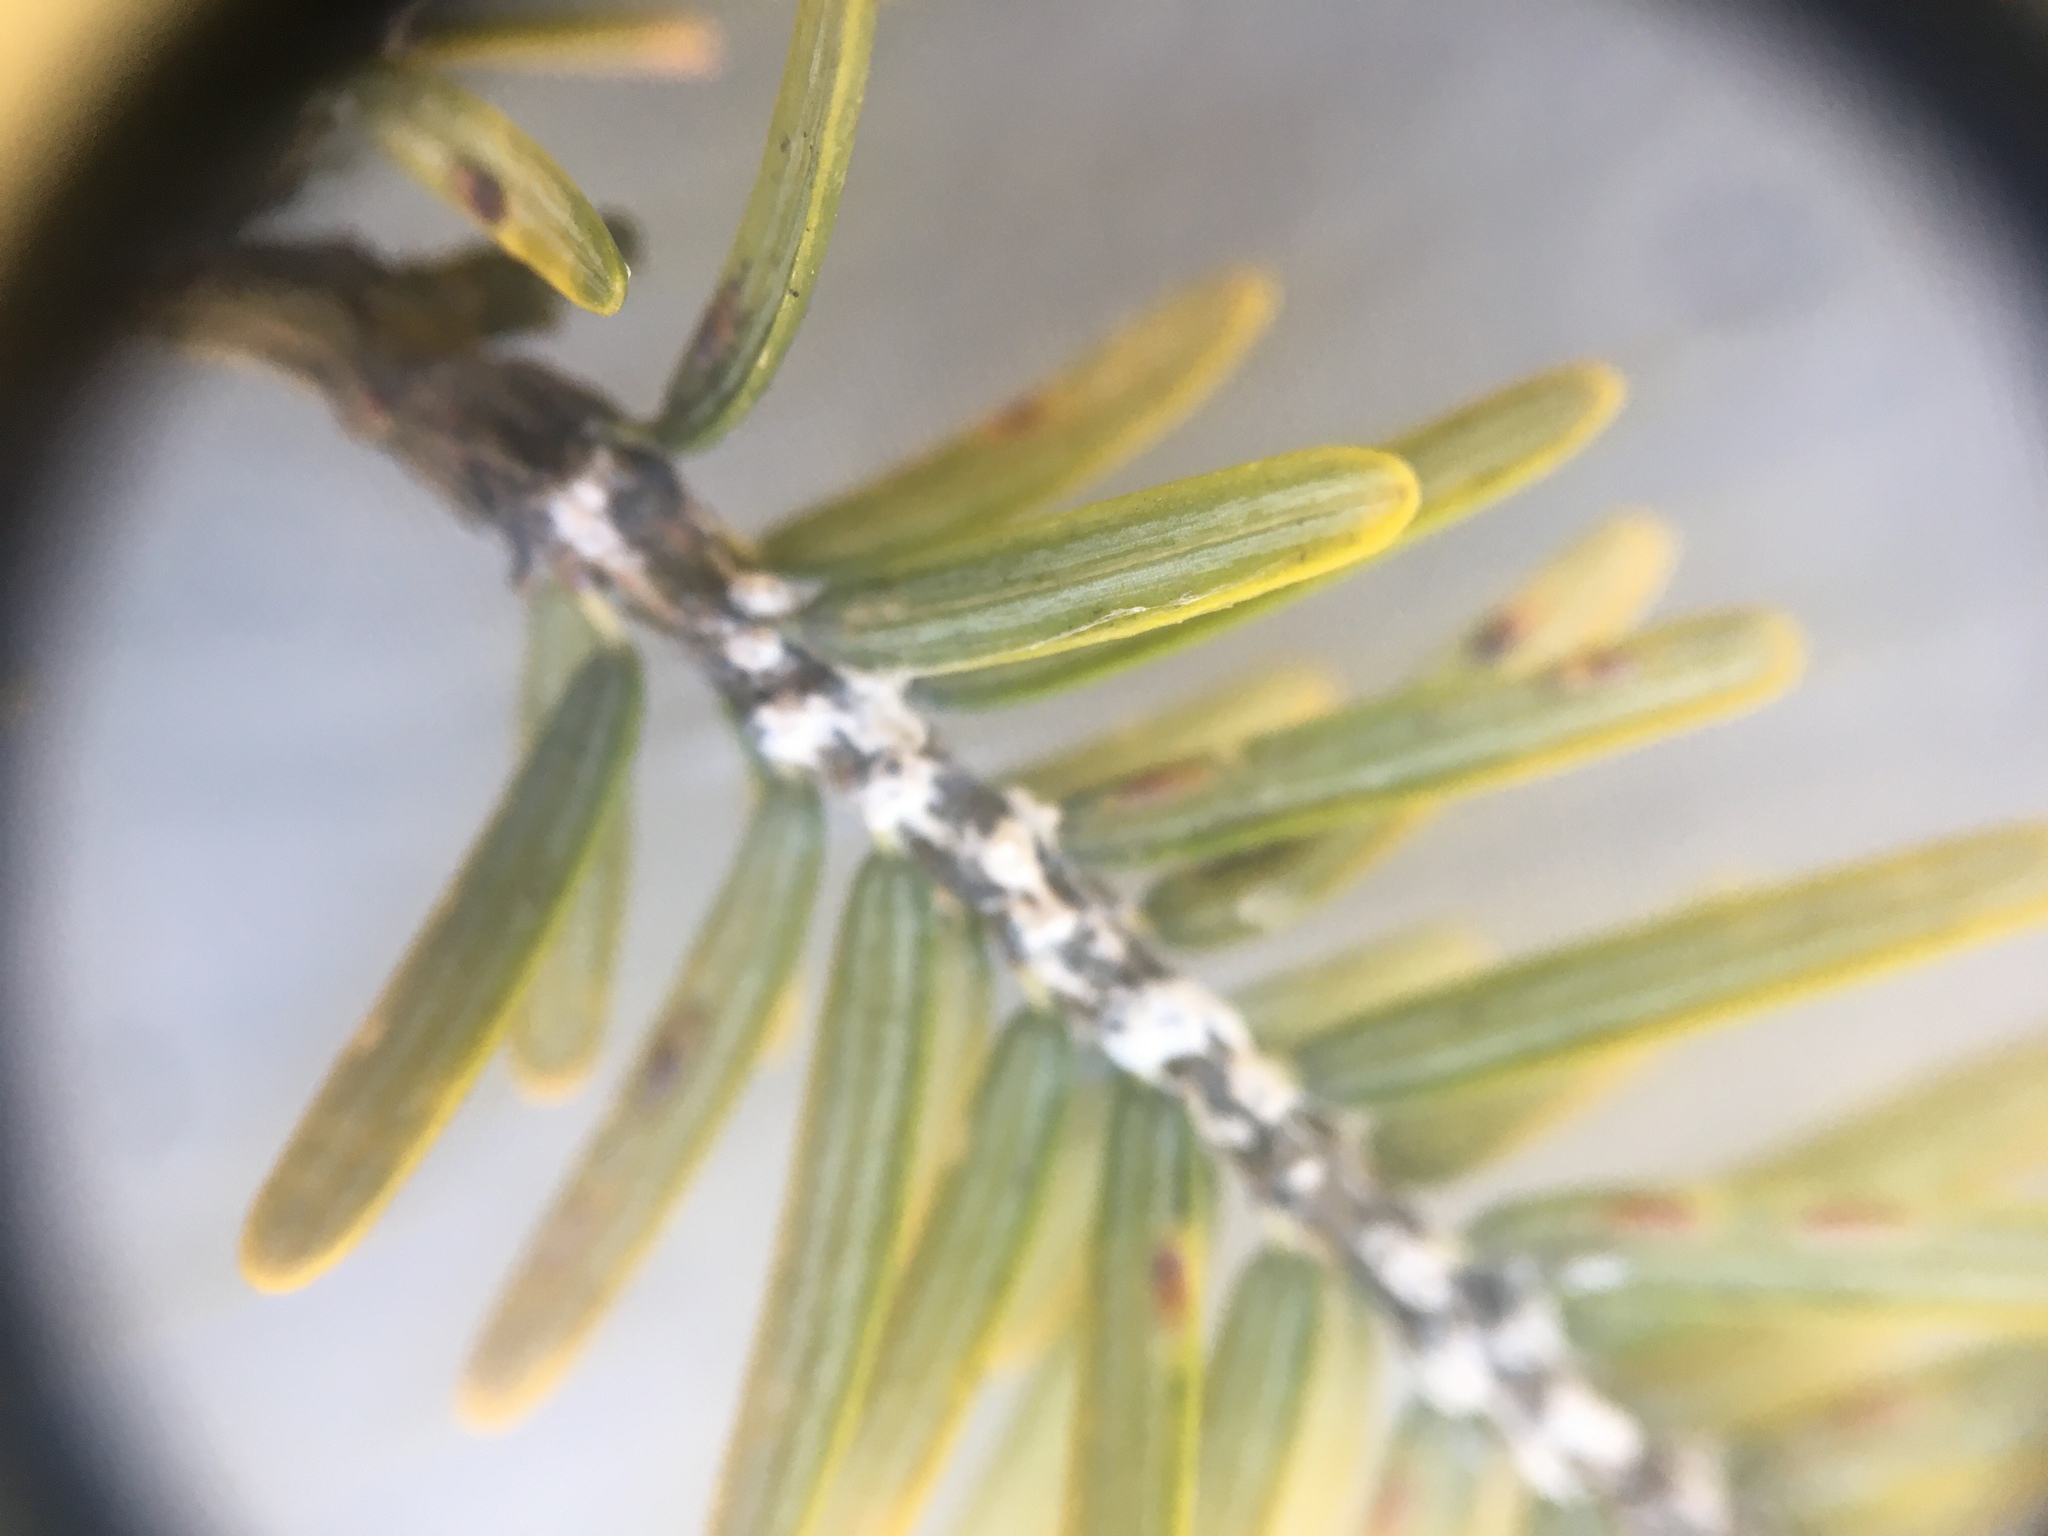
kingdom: Animalia
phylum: Arthropoda
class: Insecta
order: Hemiptera
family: Adelgidae
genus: Adelges
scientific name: Adelges tsugae
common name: Hemlock woolly adelgid
